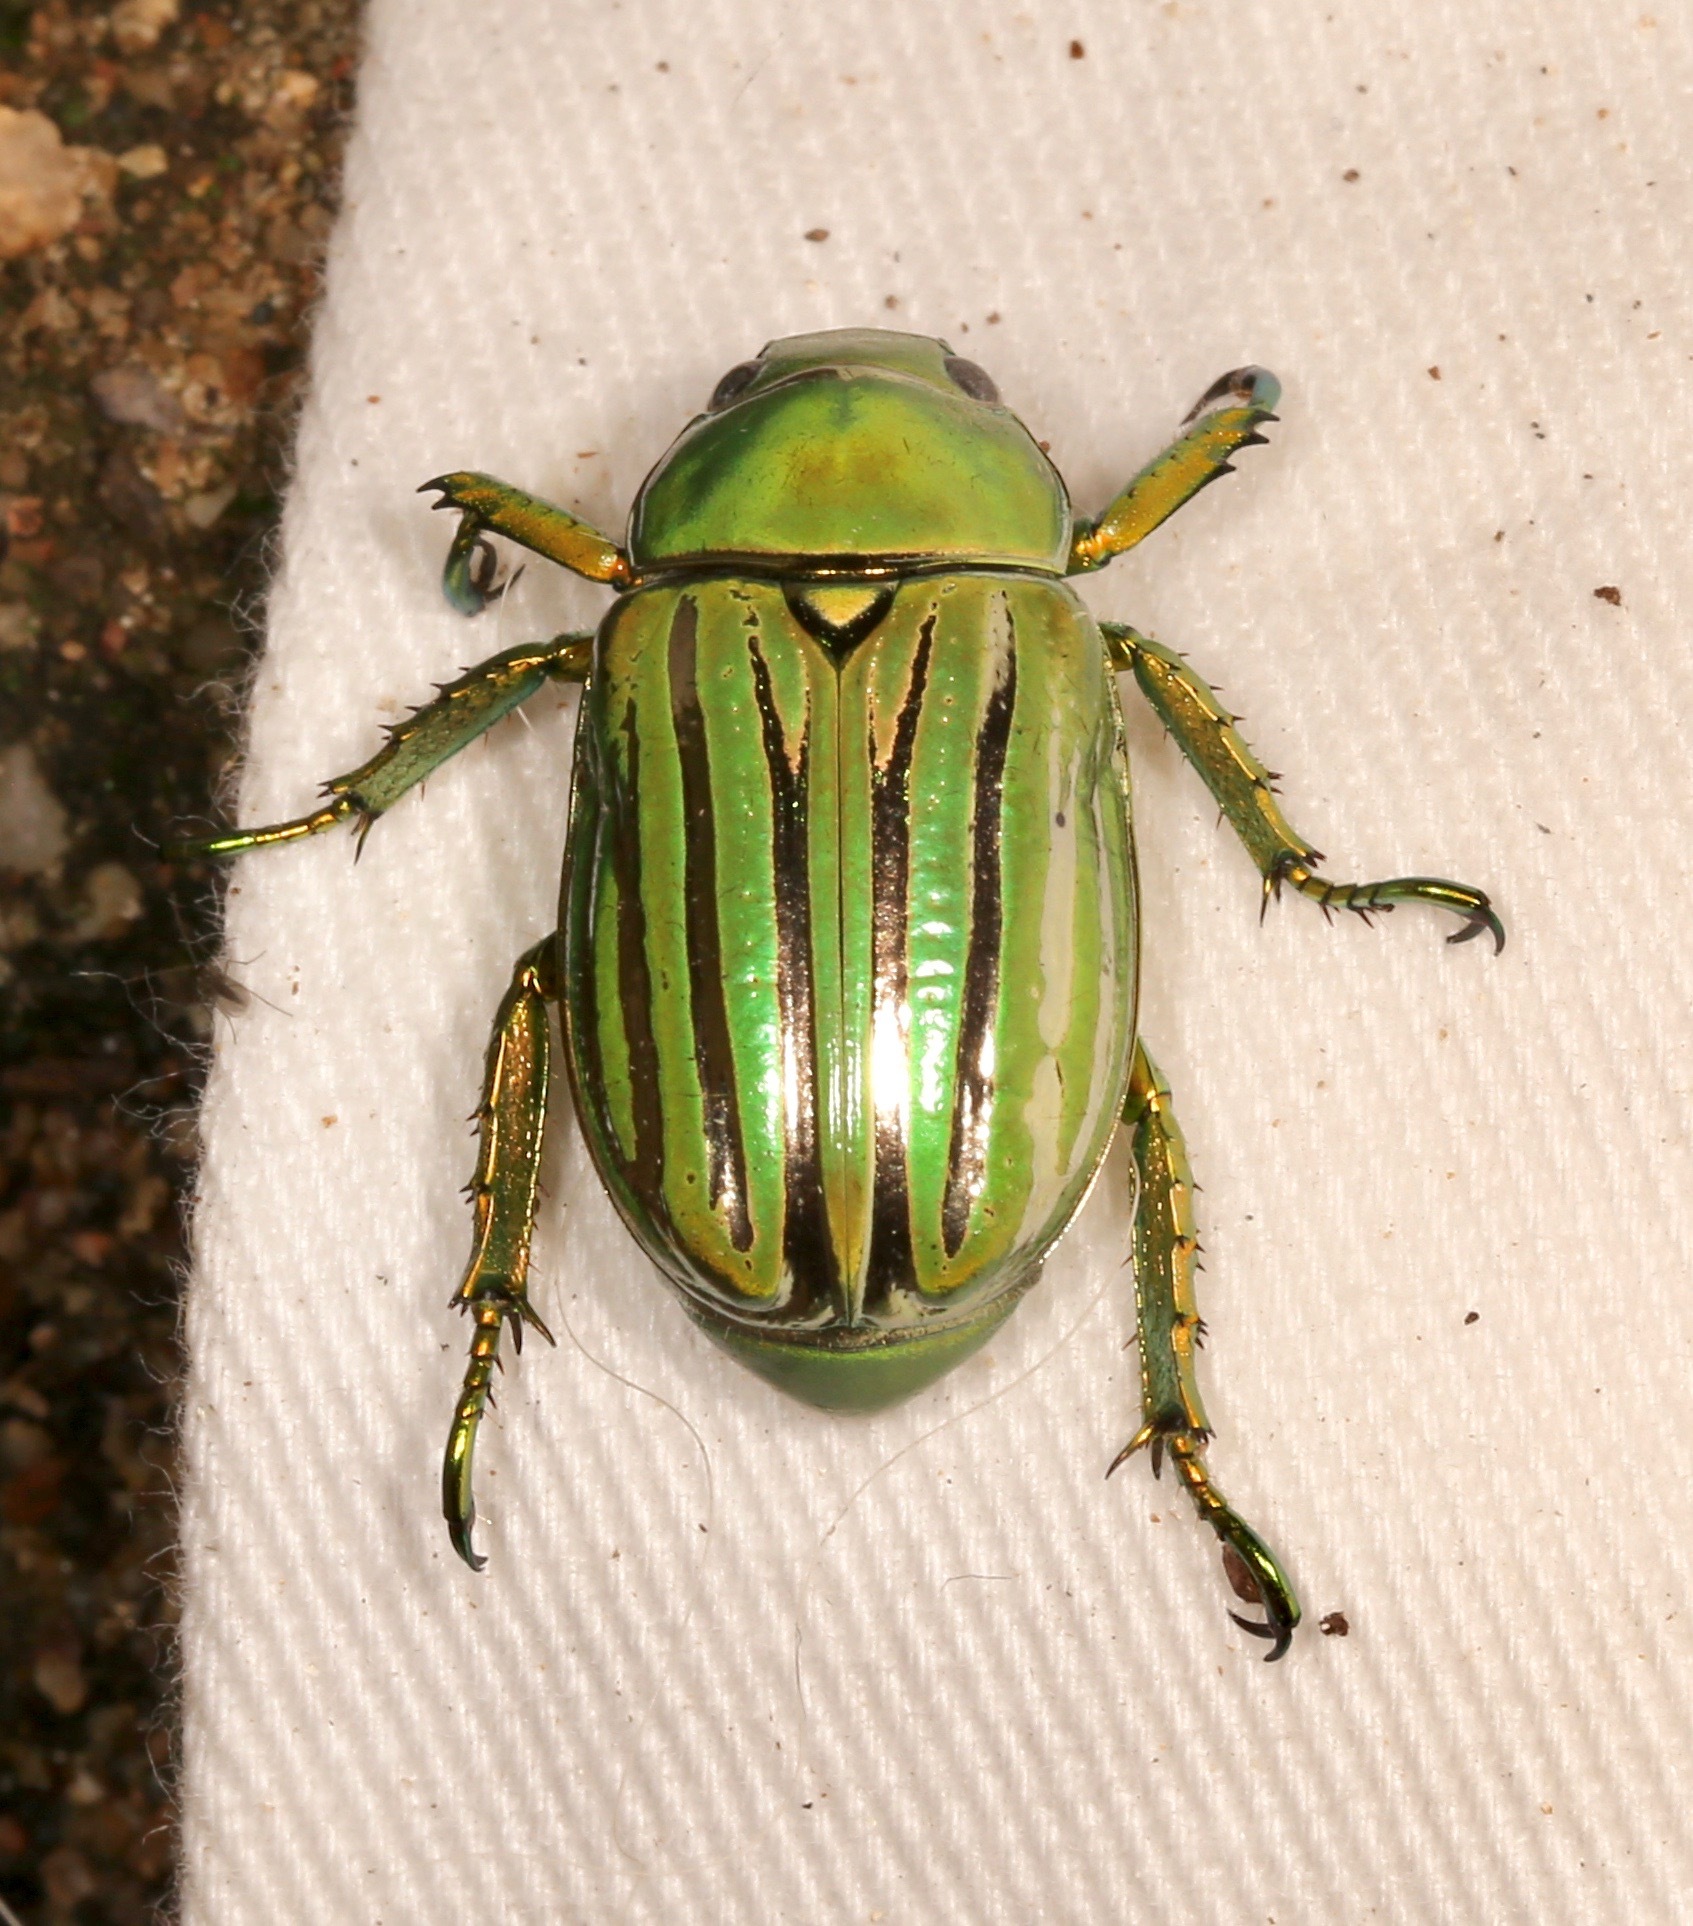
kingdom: Animalia
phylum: Arthropoda
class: Insecta
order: Coleoptera
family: Scarabaeidae
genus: Chrysina
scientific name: Chrysina gloriosa
